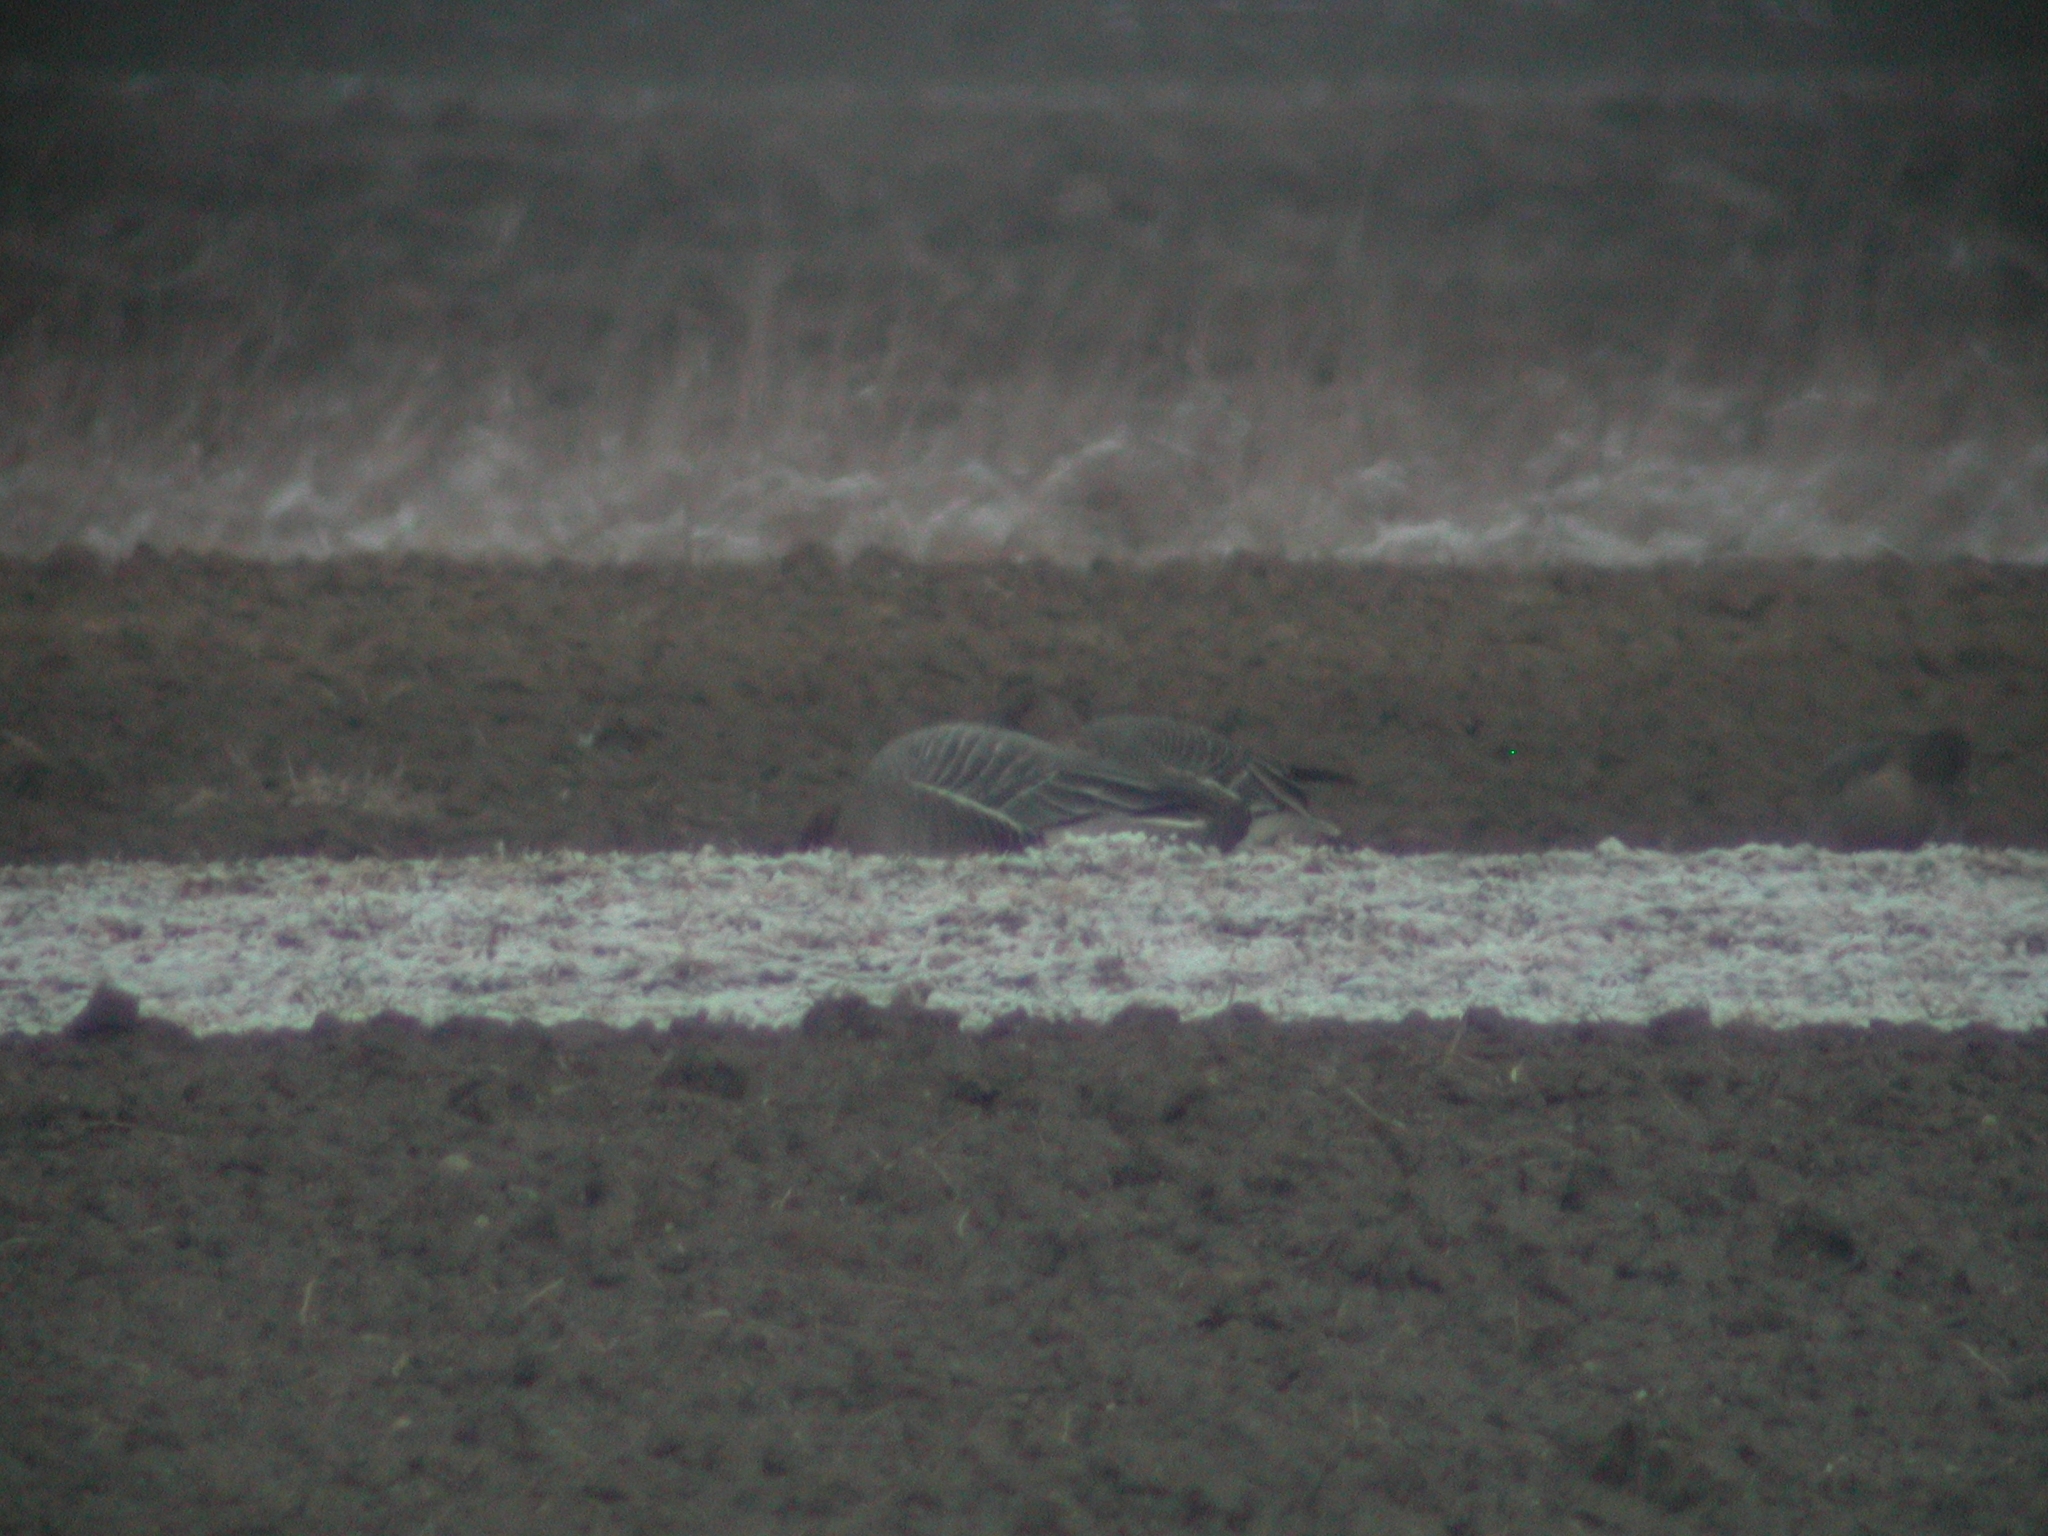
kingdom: Animalia
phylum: Chordata
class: Aves
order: Anseriformes
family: Anatidae
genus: Anser
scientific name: Anser brachyrhynchus
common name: Pink-footed goose
